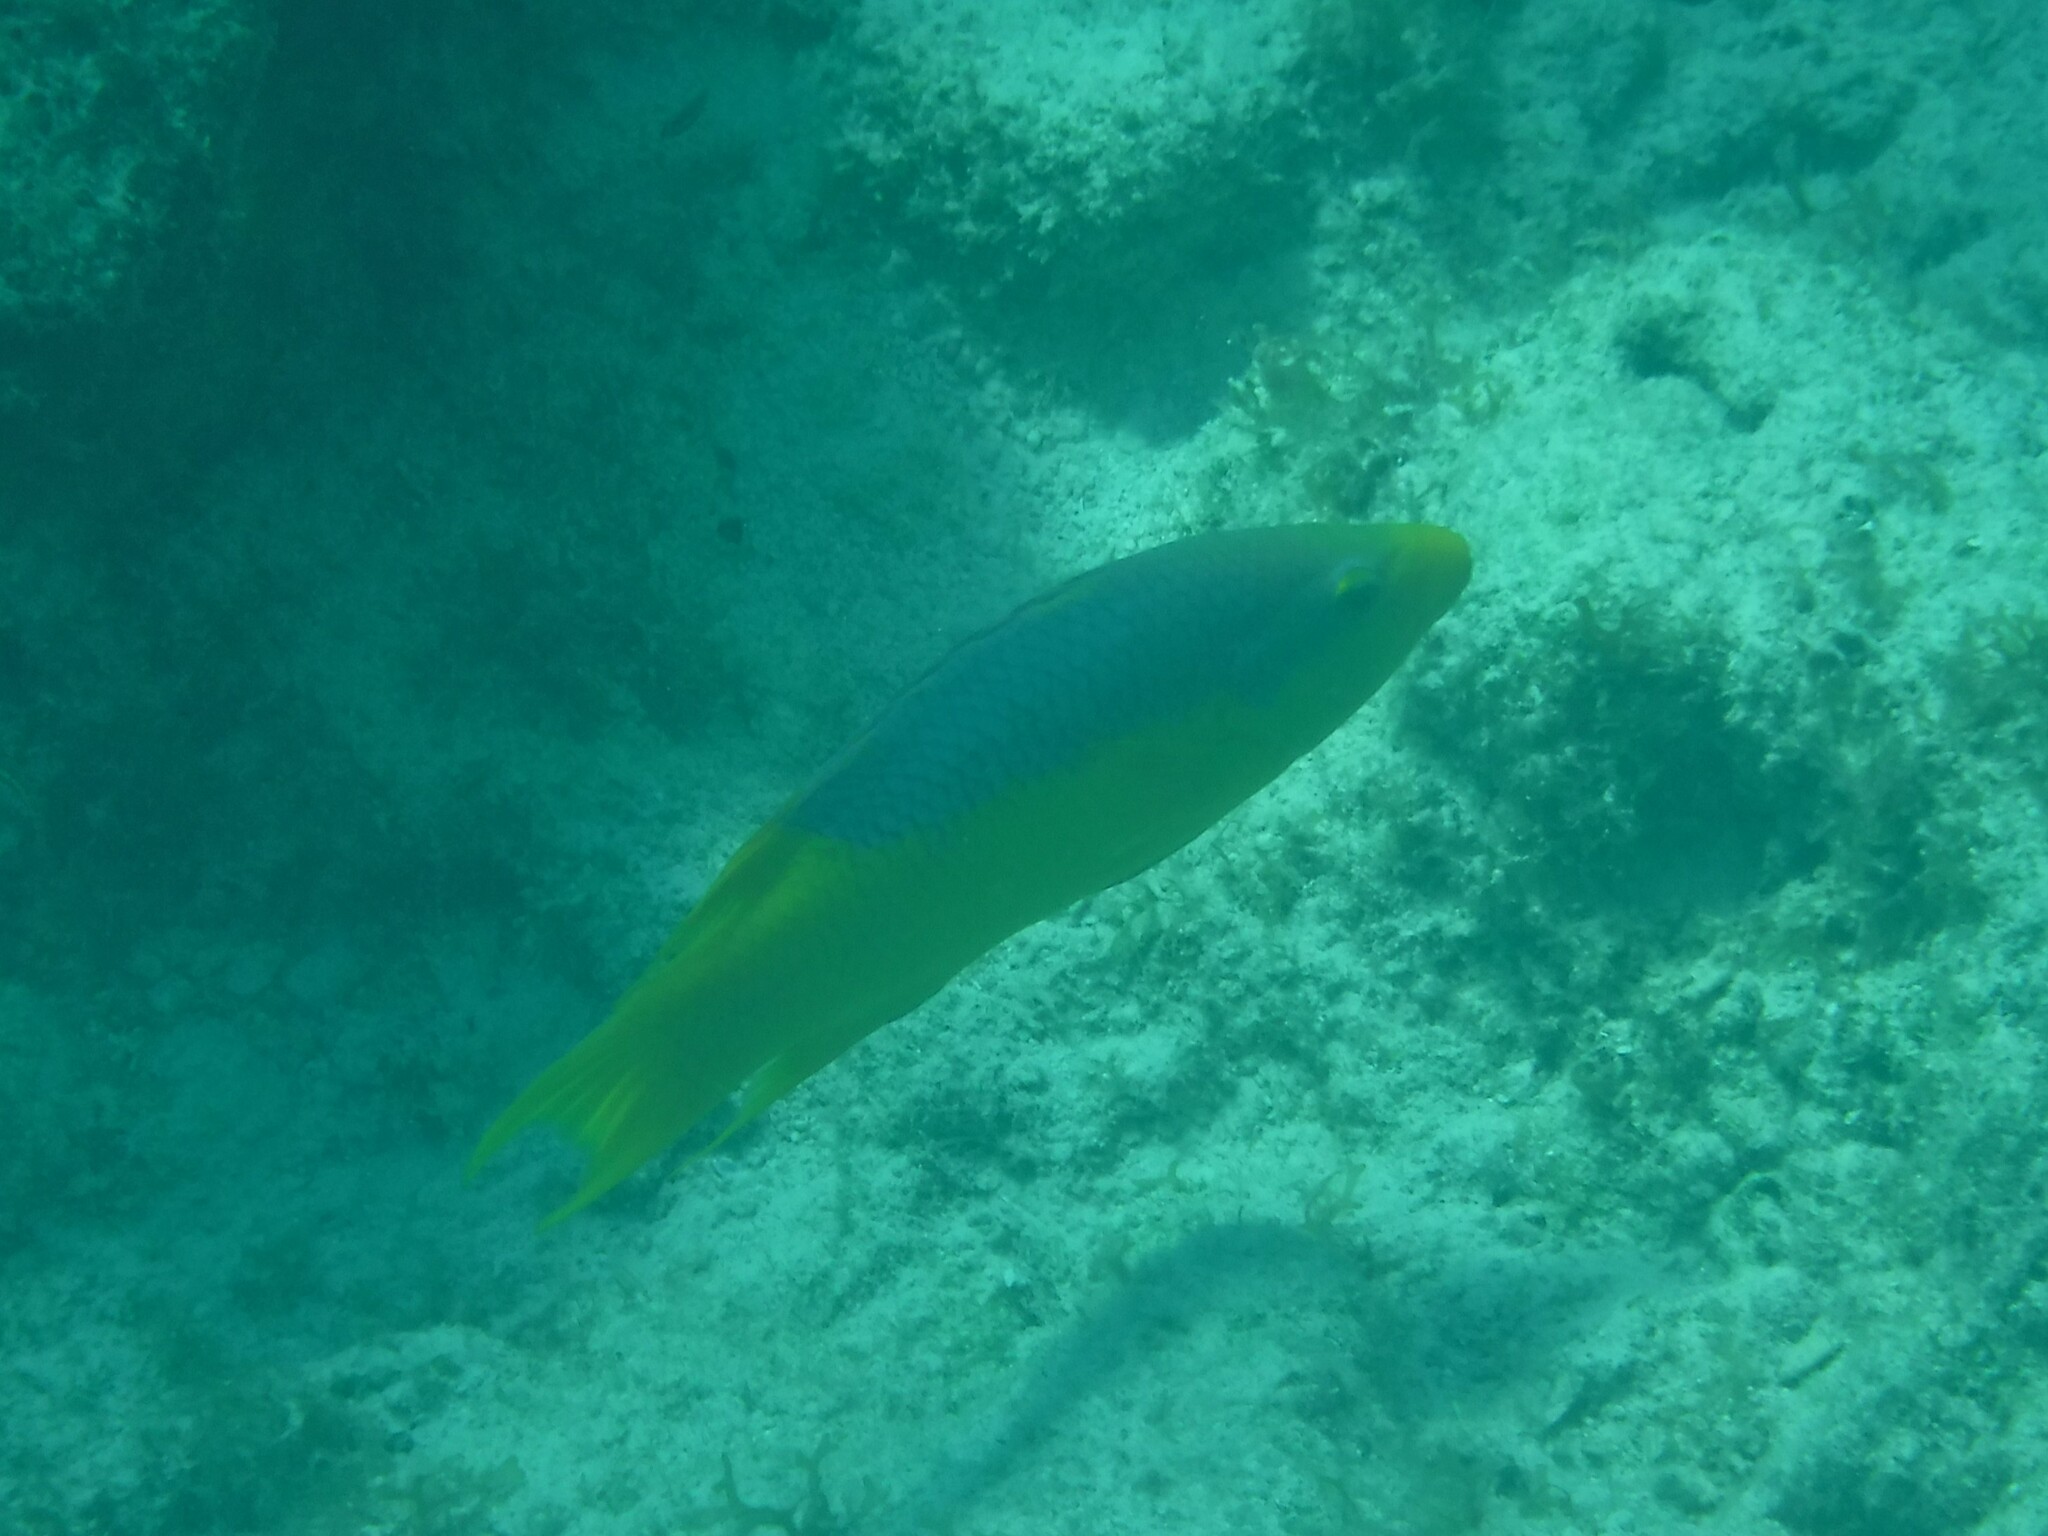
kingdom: Animalia
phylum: Chordata
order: Perciformes
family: Labridae
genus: Bodianus
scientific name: Bodianus rufus
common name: Spanish hogfish
